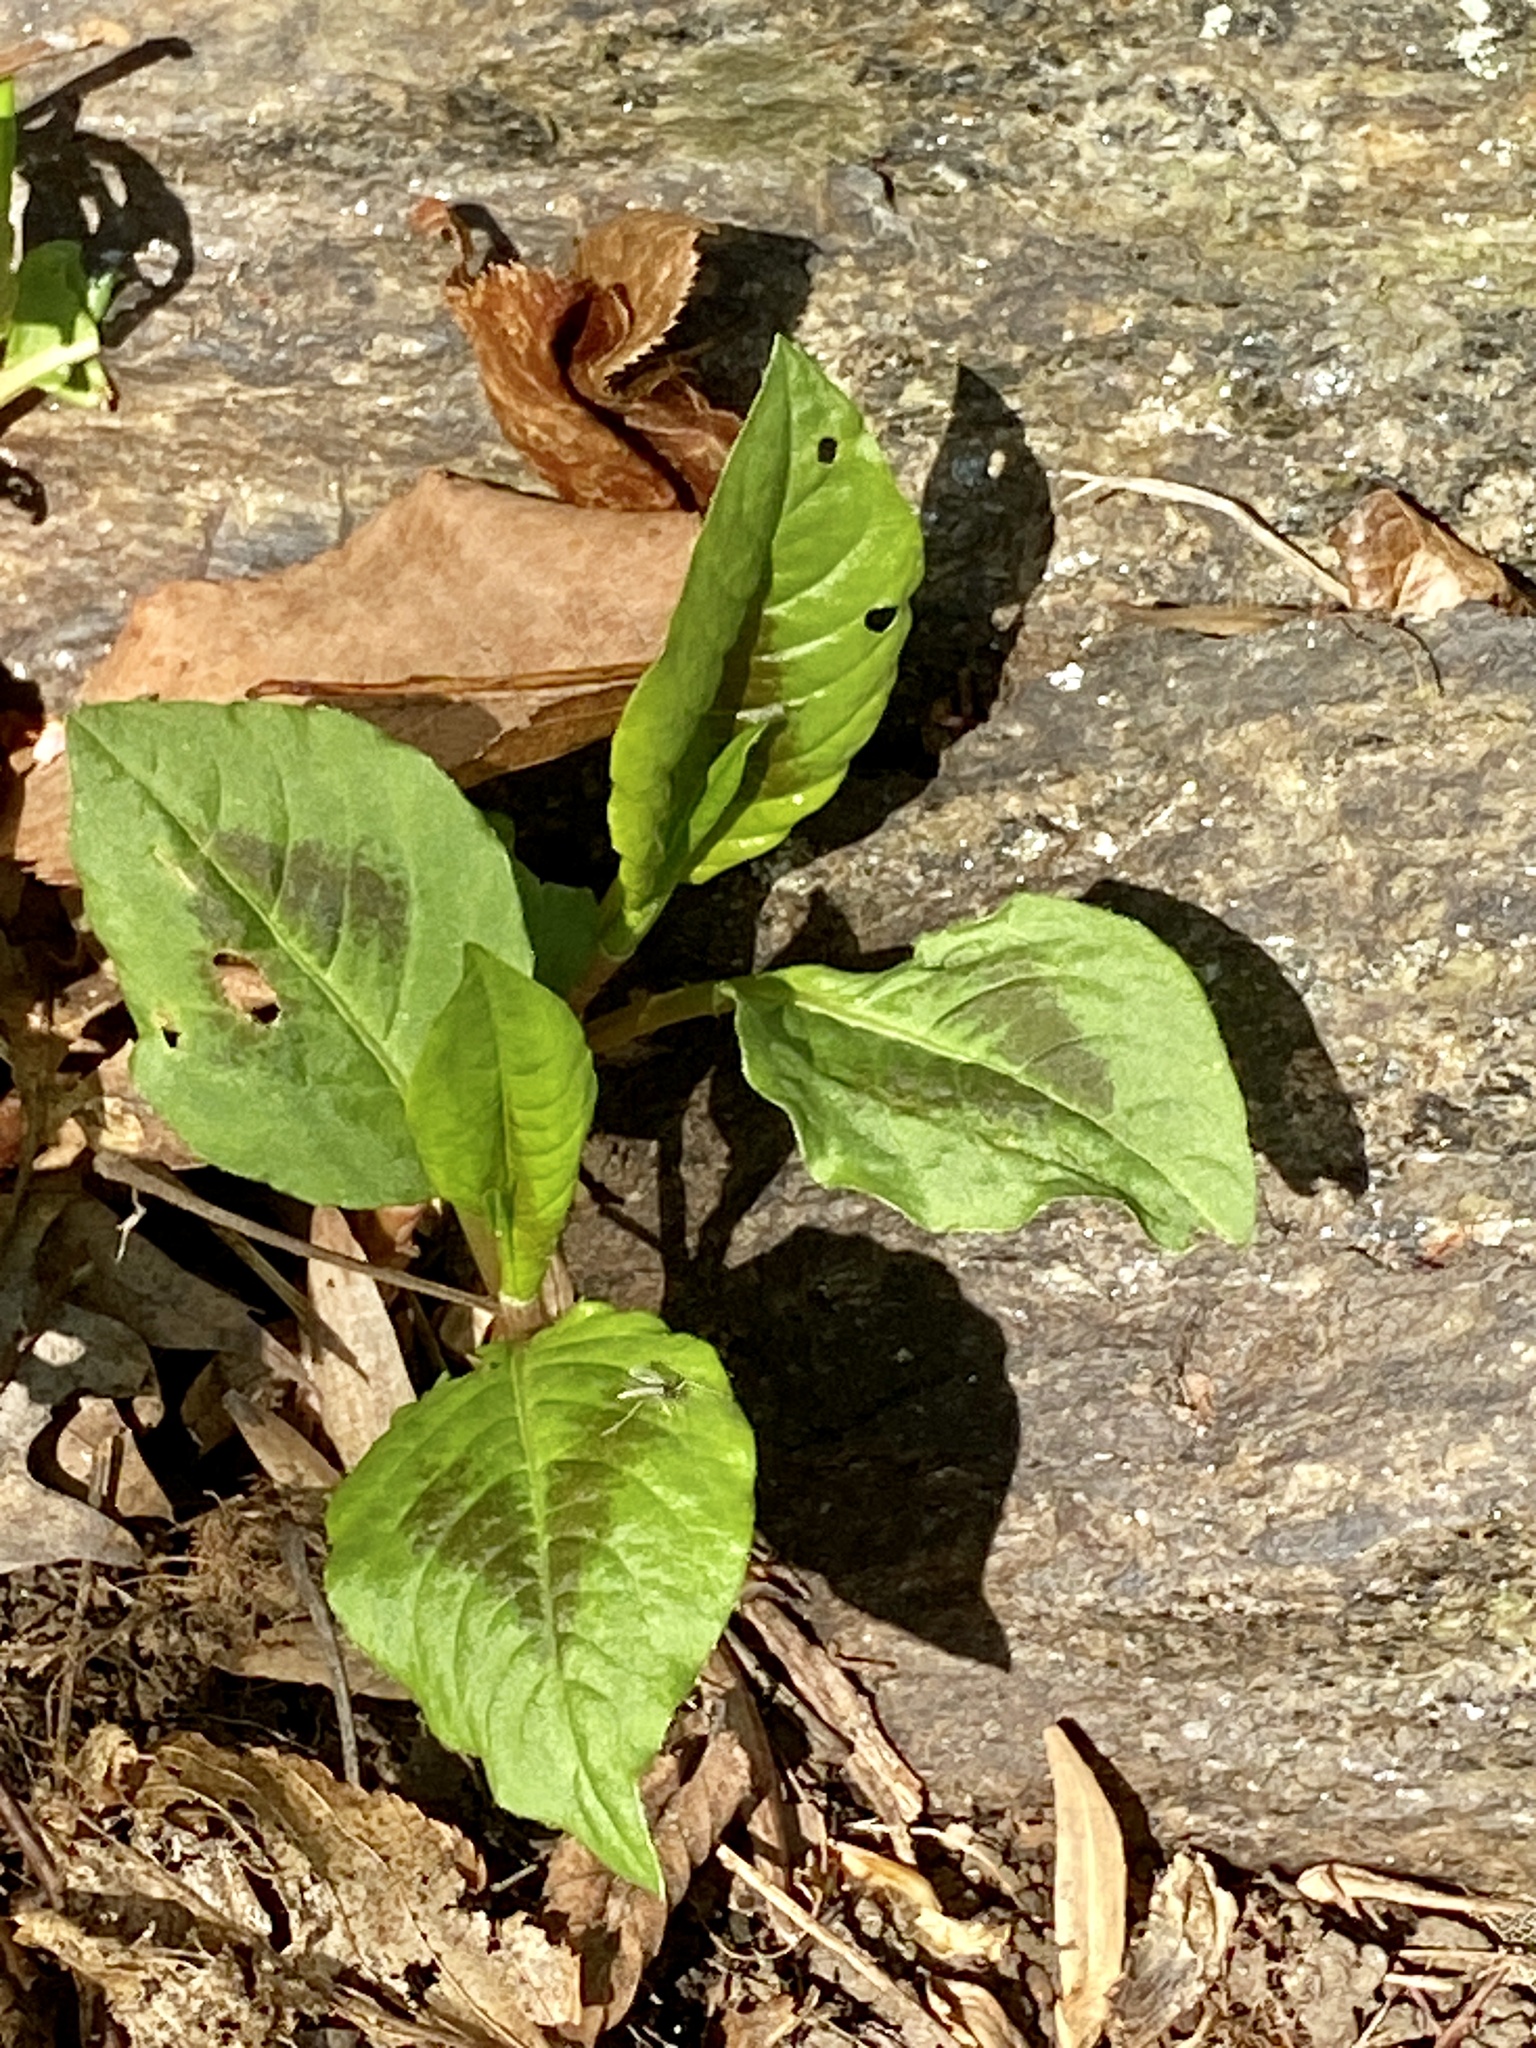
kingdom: Plantae
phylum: Tracheophyta
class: Magnoliopsida
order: Caryophyllales
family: Polygonaceae
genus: Persicaria
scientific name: Persicaria virginiana
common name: Jumpseed
